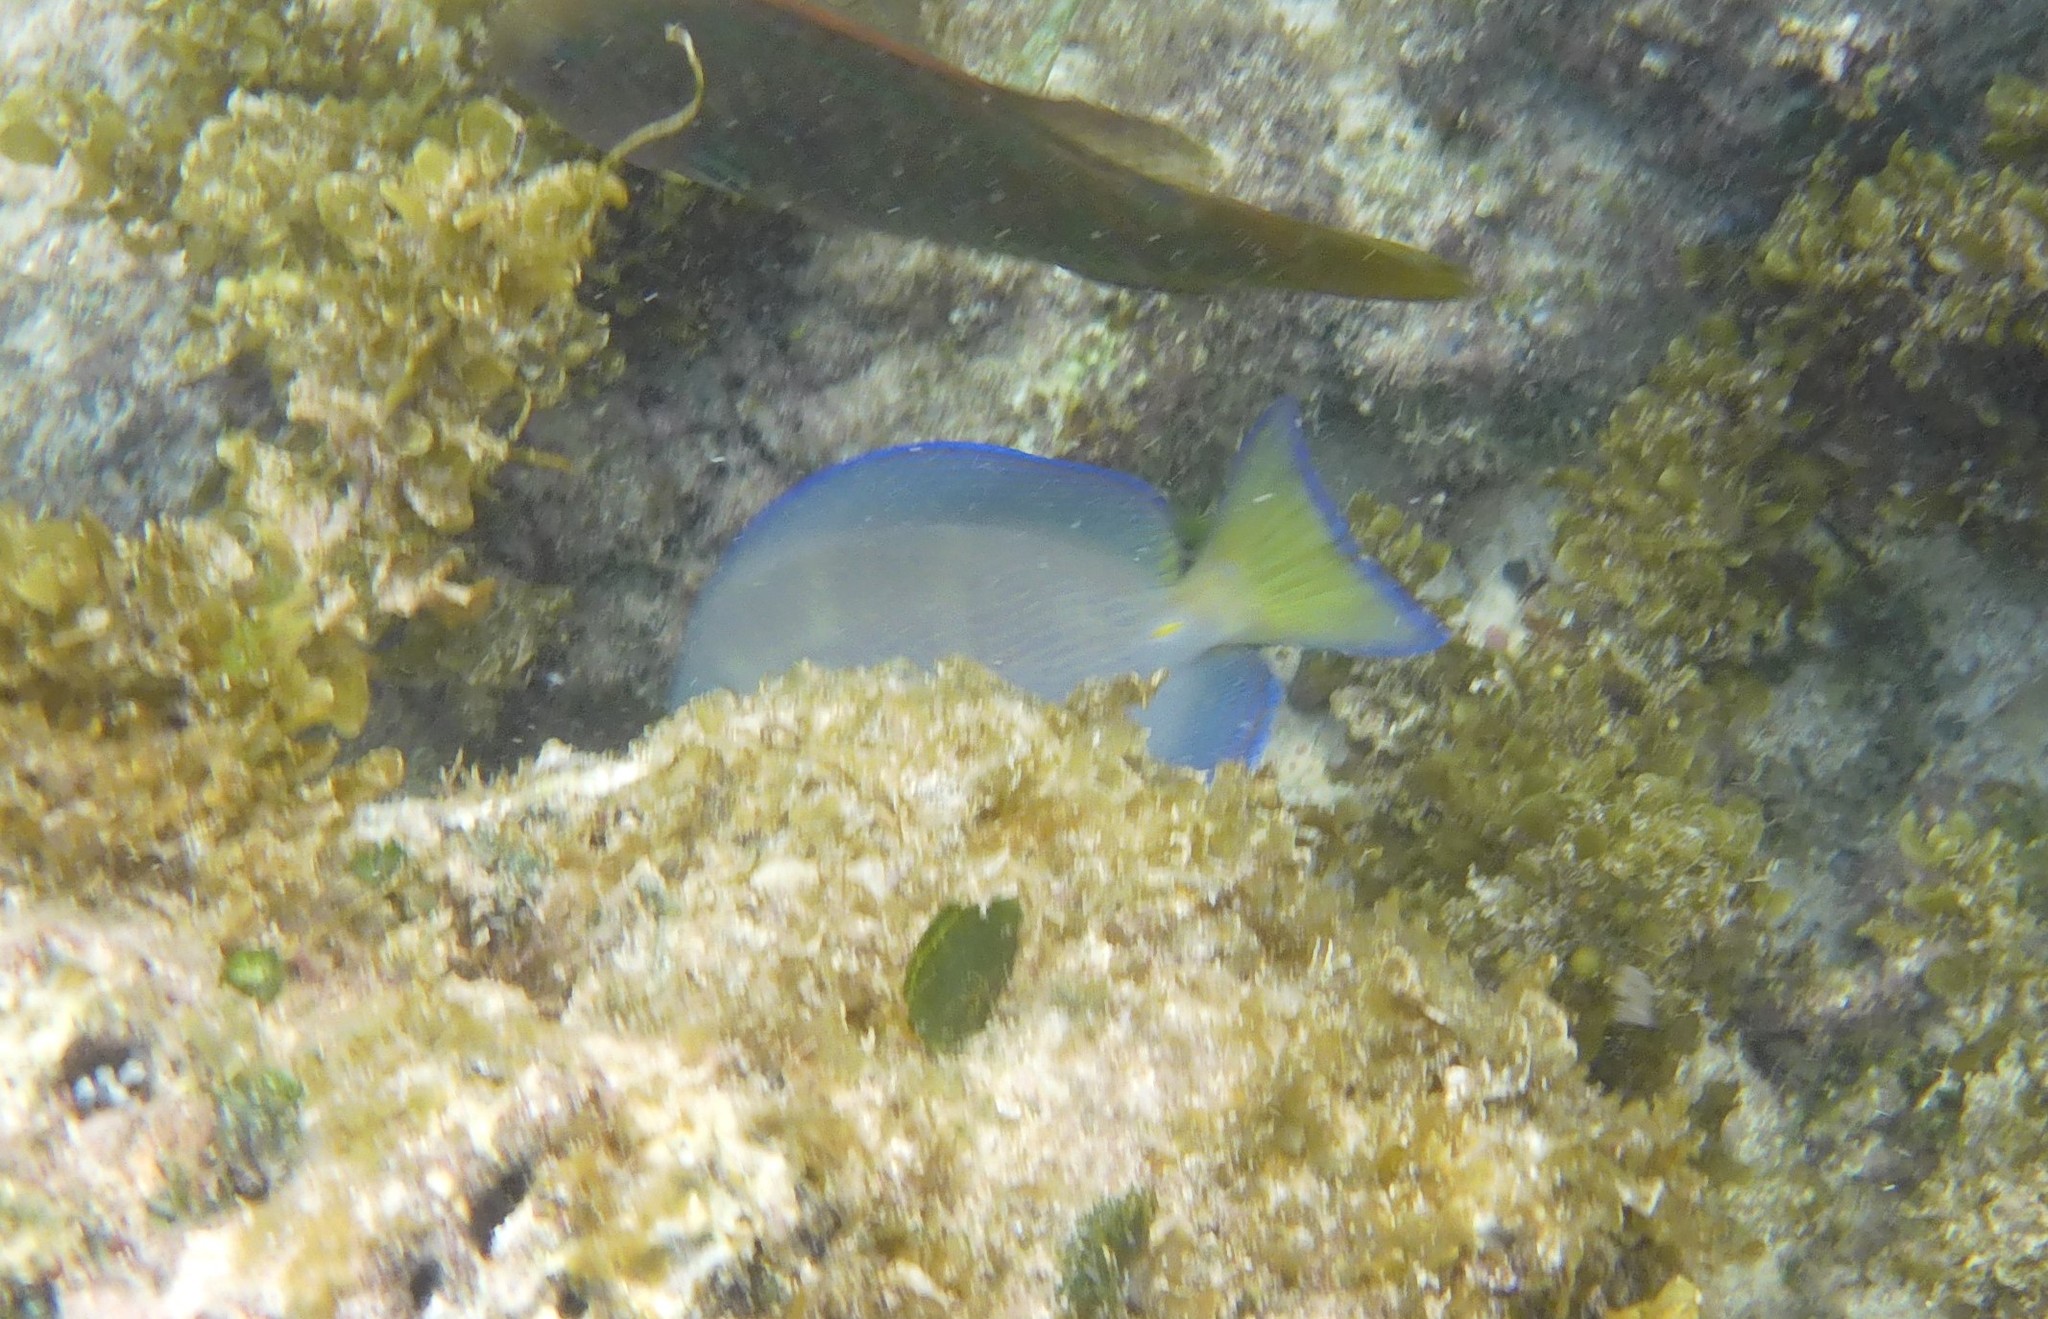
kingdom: Animalia
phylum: Chordata
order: Perciformes
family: Acanthuridae
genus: Acanthurus
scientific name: Acanthurus coeruleus
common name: Blue tang
